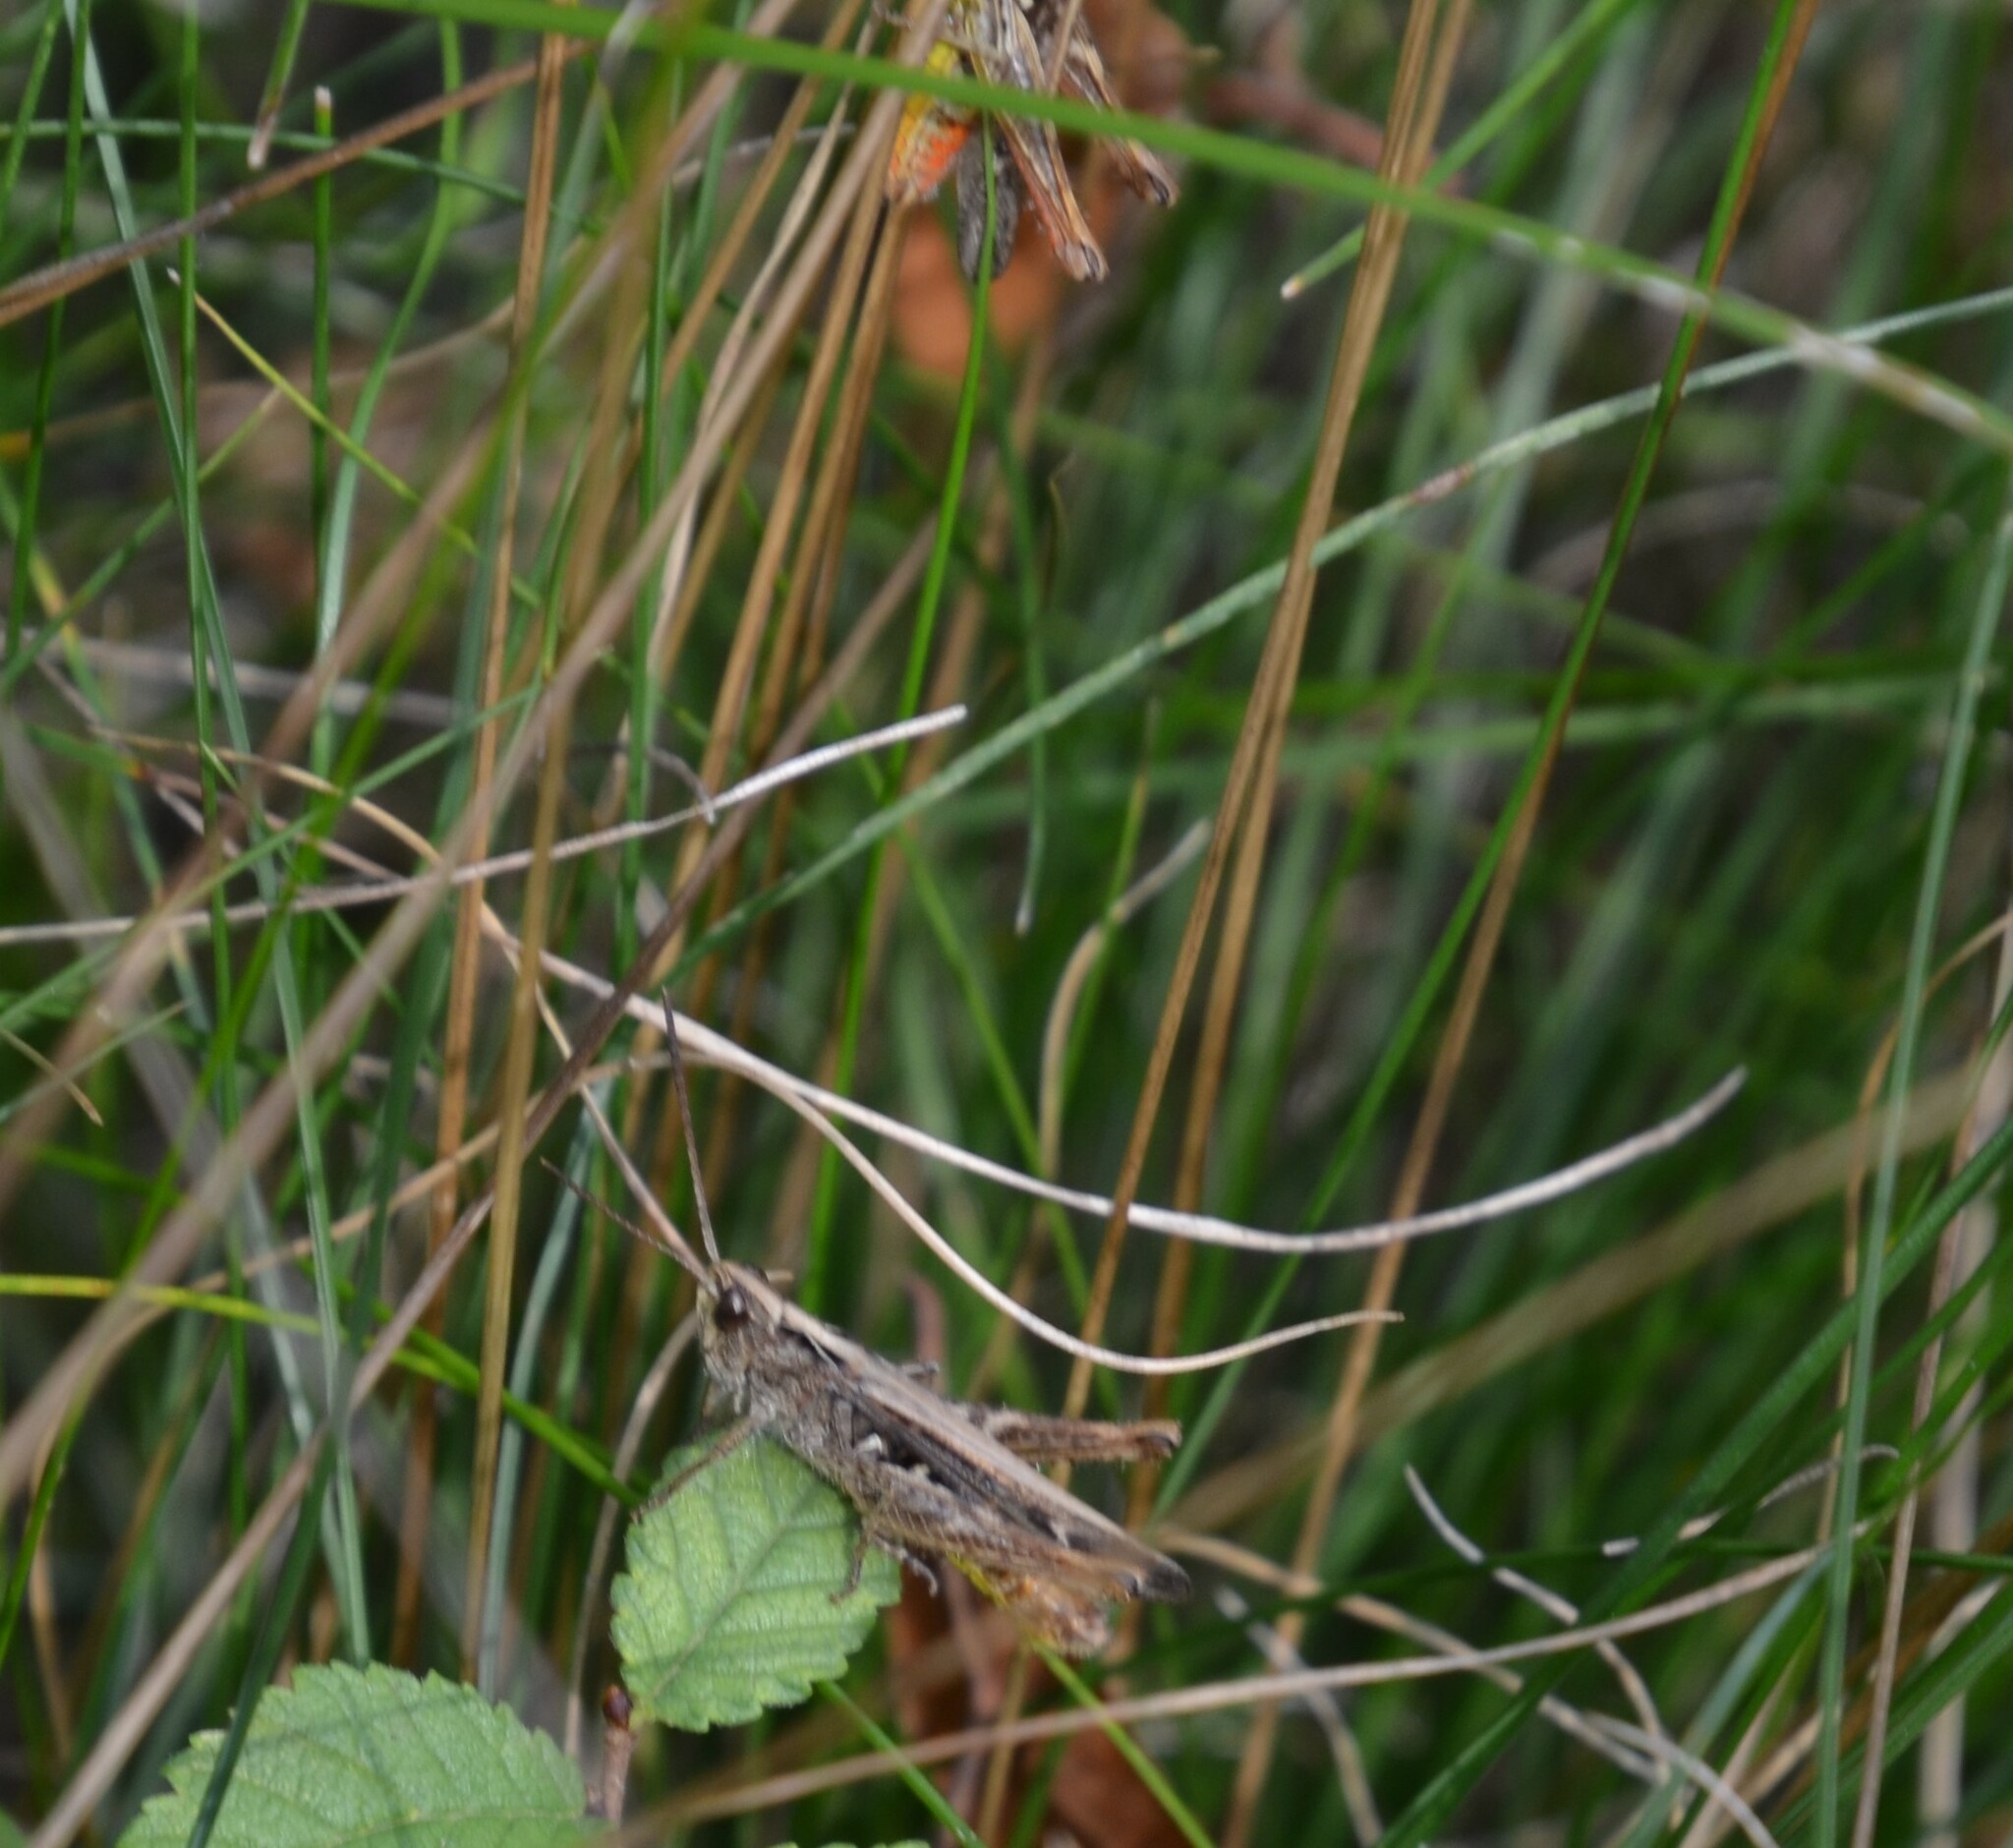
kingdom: Animalia
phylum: Arthropoda
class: Insecta
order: Orthoptera
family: Acrididae
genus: Chorthippus
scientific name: Chorthippus mollis
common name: Lesser field grasshopper
